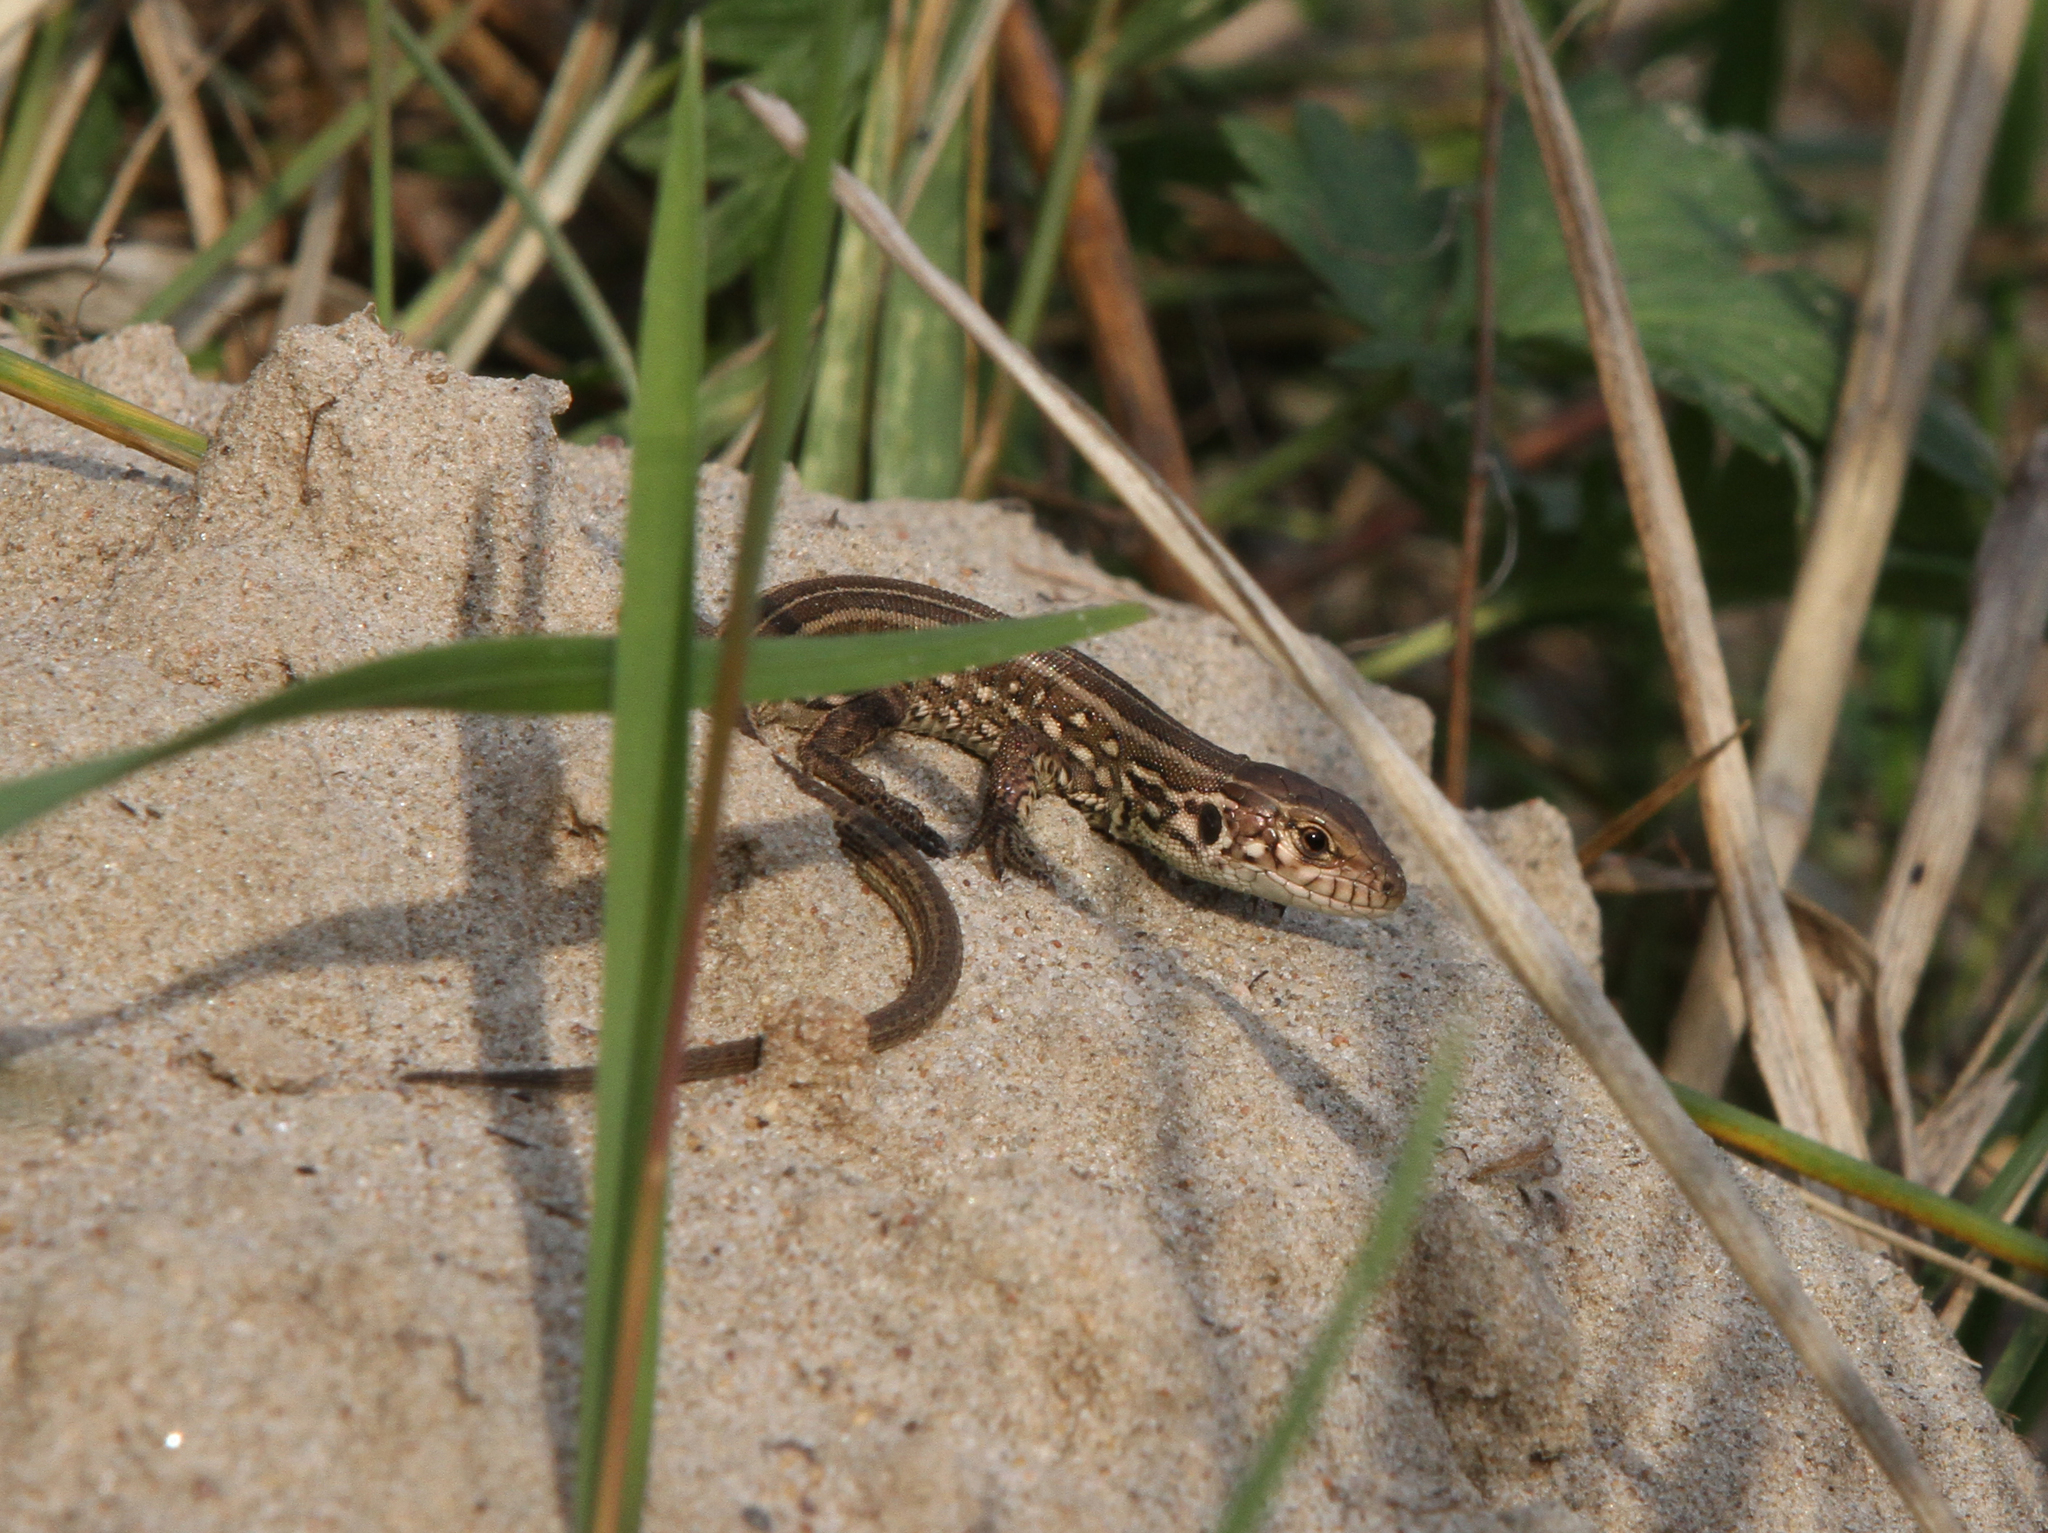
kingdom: Animalia
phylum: Chordata
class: Squamata
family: Lacertidae
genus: Lacerta
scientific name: Lacerta agilis
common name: Sand lizard
